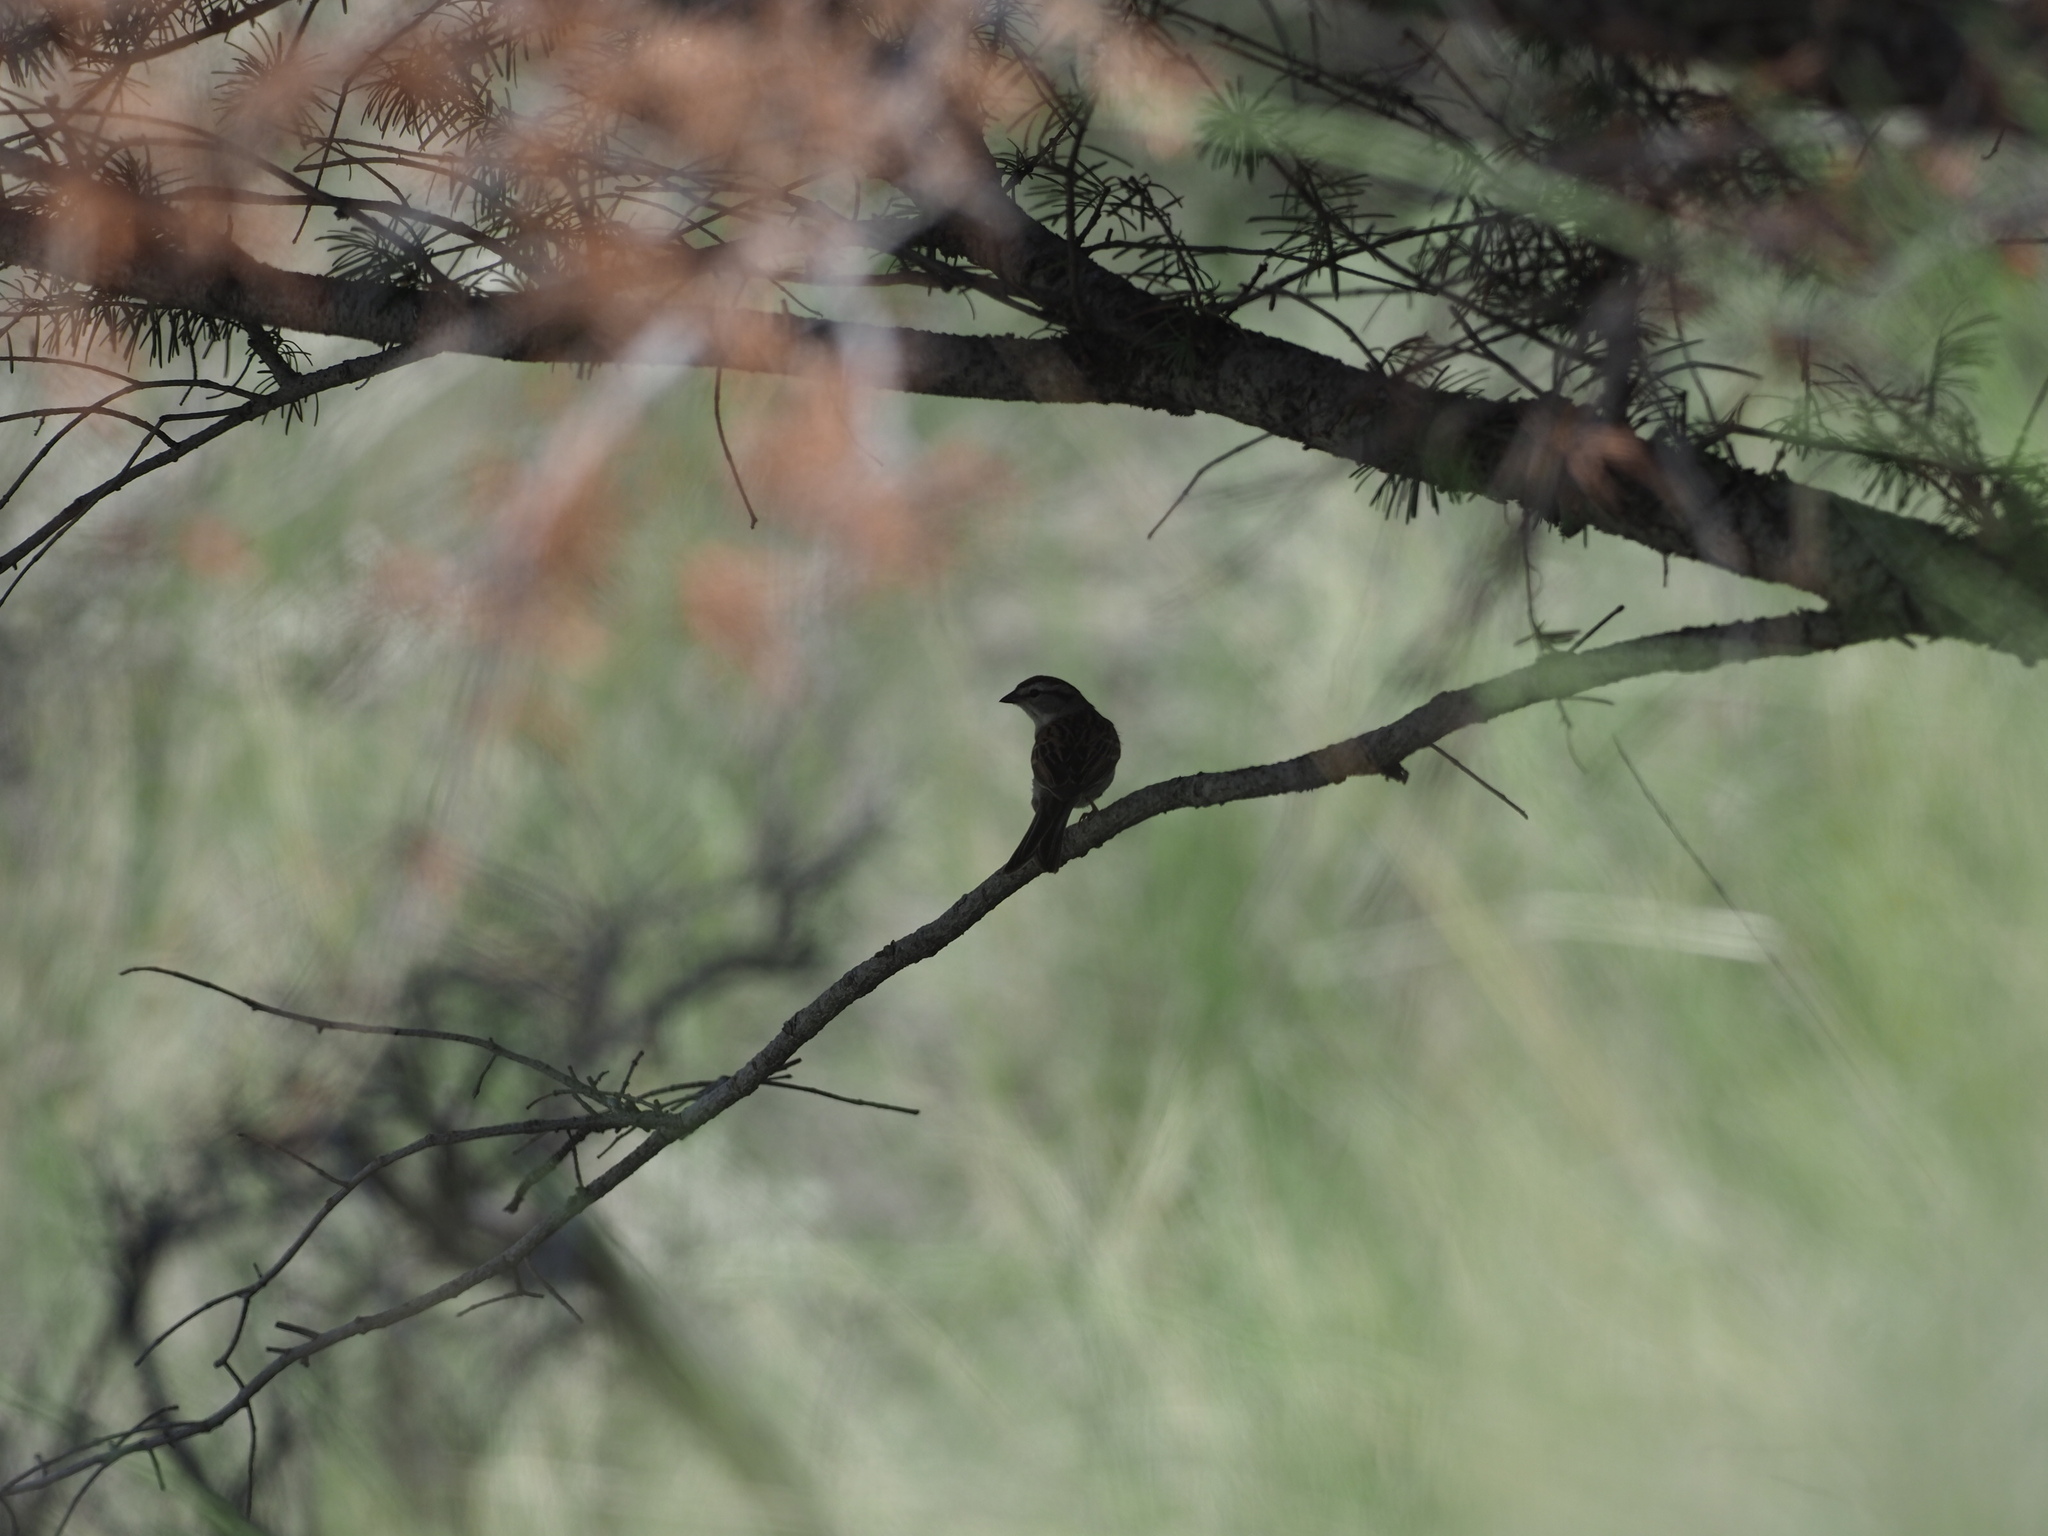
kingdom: Animalia
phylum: Chordata
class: Aves
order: Passeriformes
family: Passerellidae
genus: Spizella
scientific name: Spizella passerina
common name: Chipping sparrow
